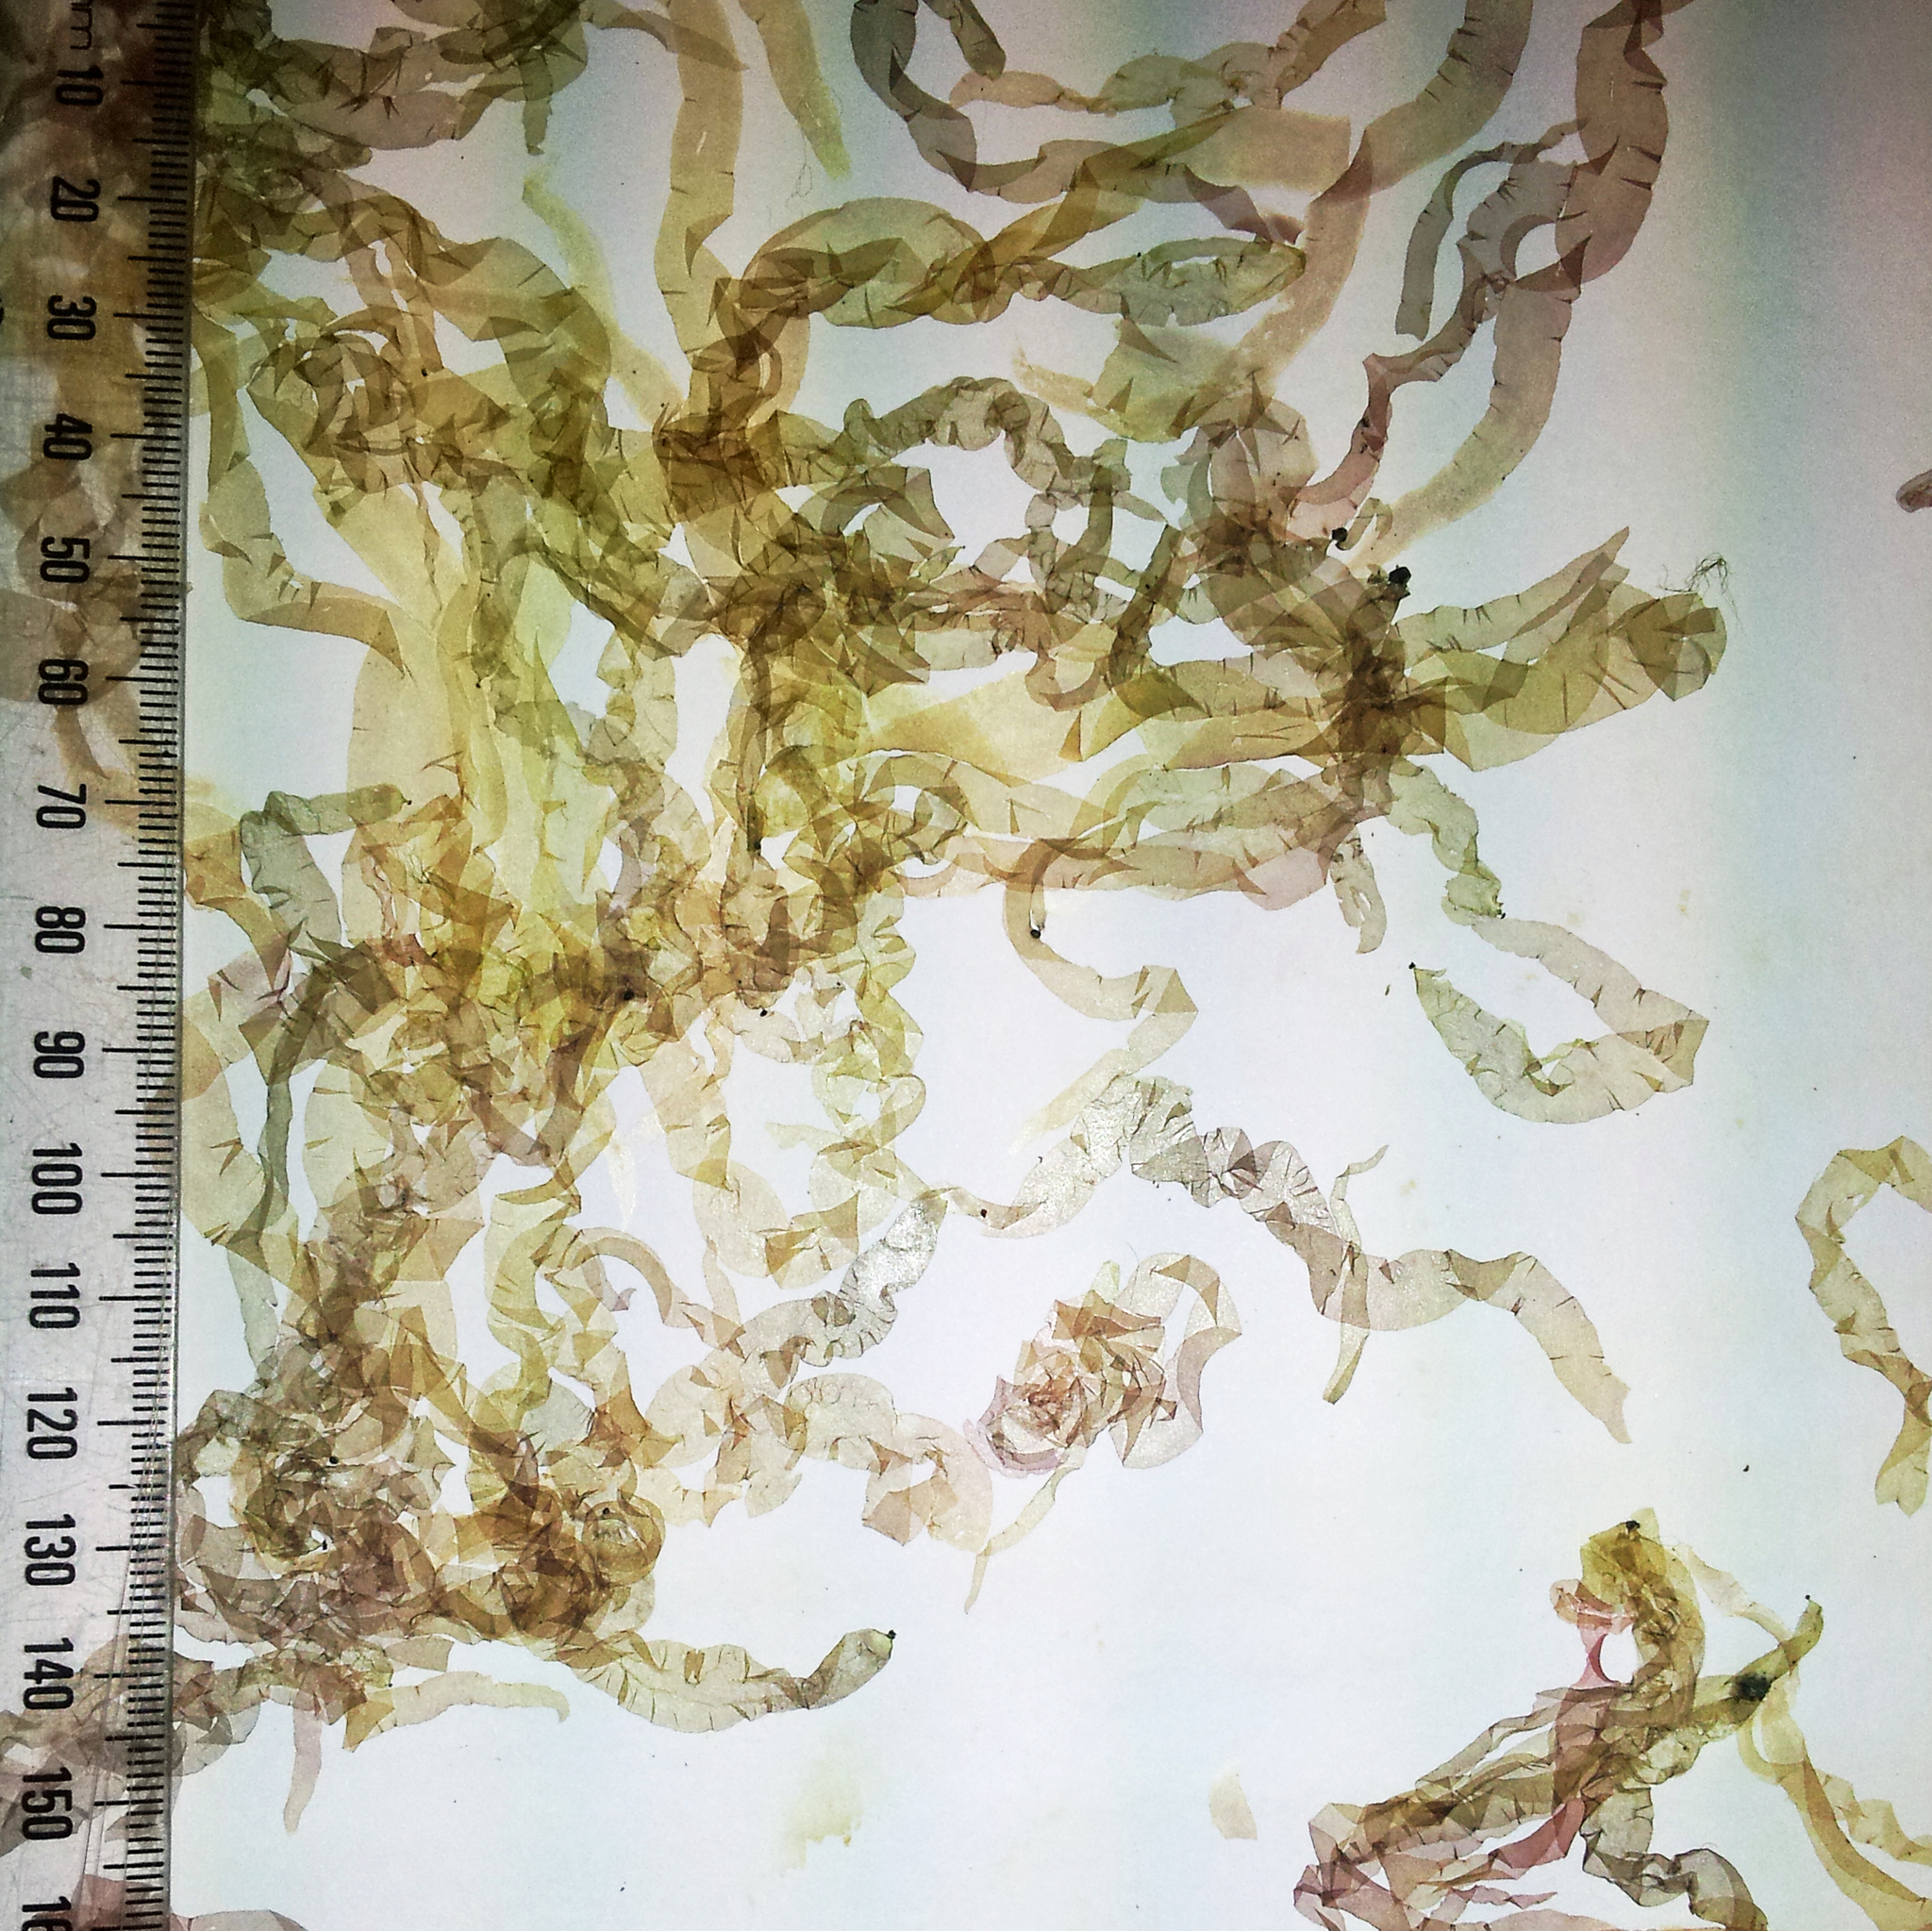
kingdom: Plantae
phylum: Rhodophyta
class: Bangiophyceae
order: Bangiales
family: Bangiaceae
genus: Pyropia
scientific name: Pyropia virididentata
